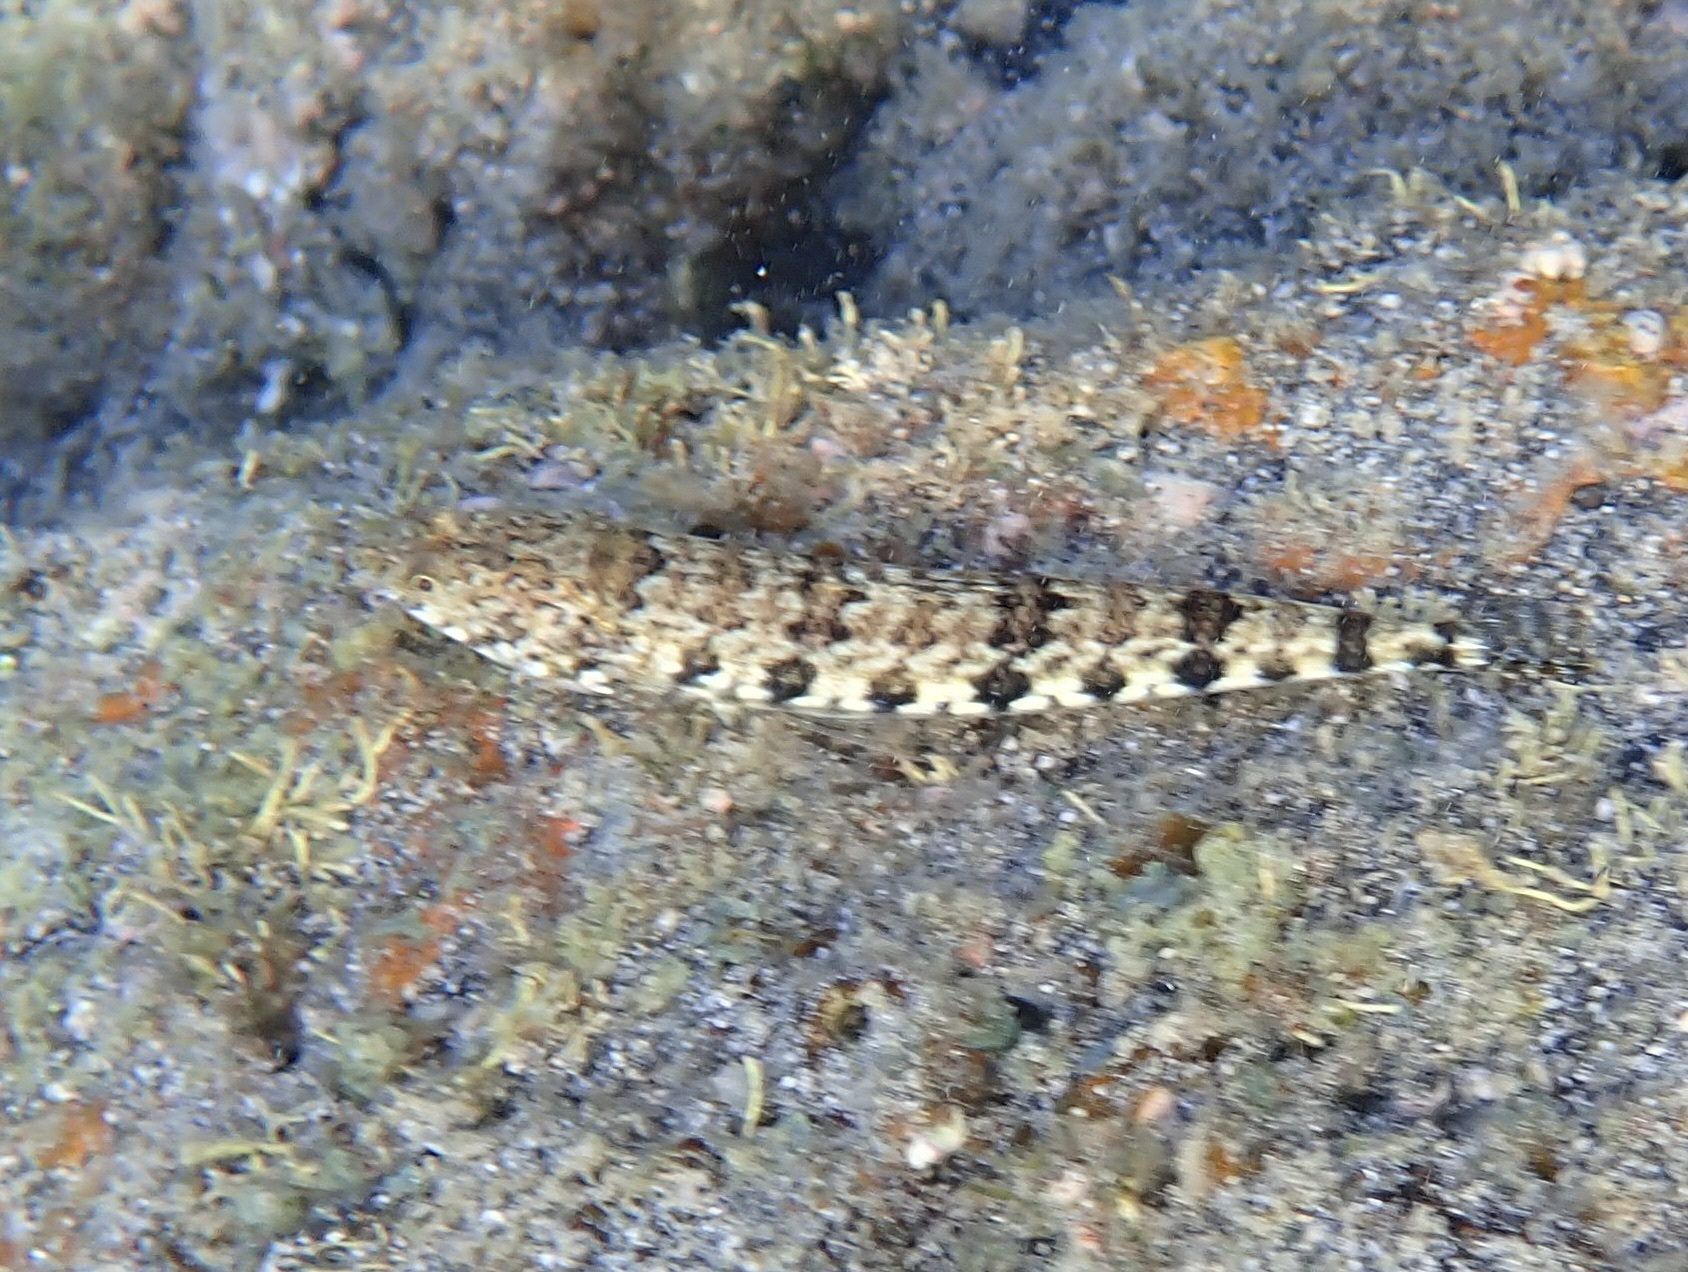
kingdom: Animalia
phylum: Chordata
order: Aulopiformes
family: Synodontidae
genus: Synodus
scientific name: Synodus variegatus
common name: Variegated lizardfish
